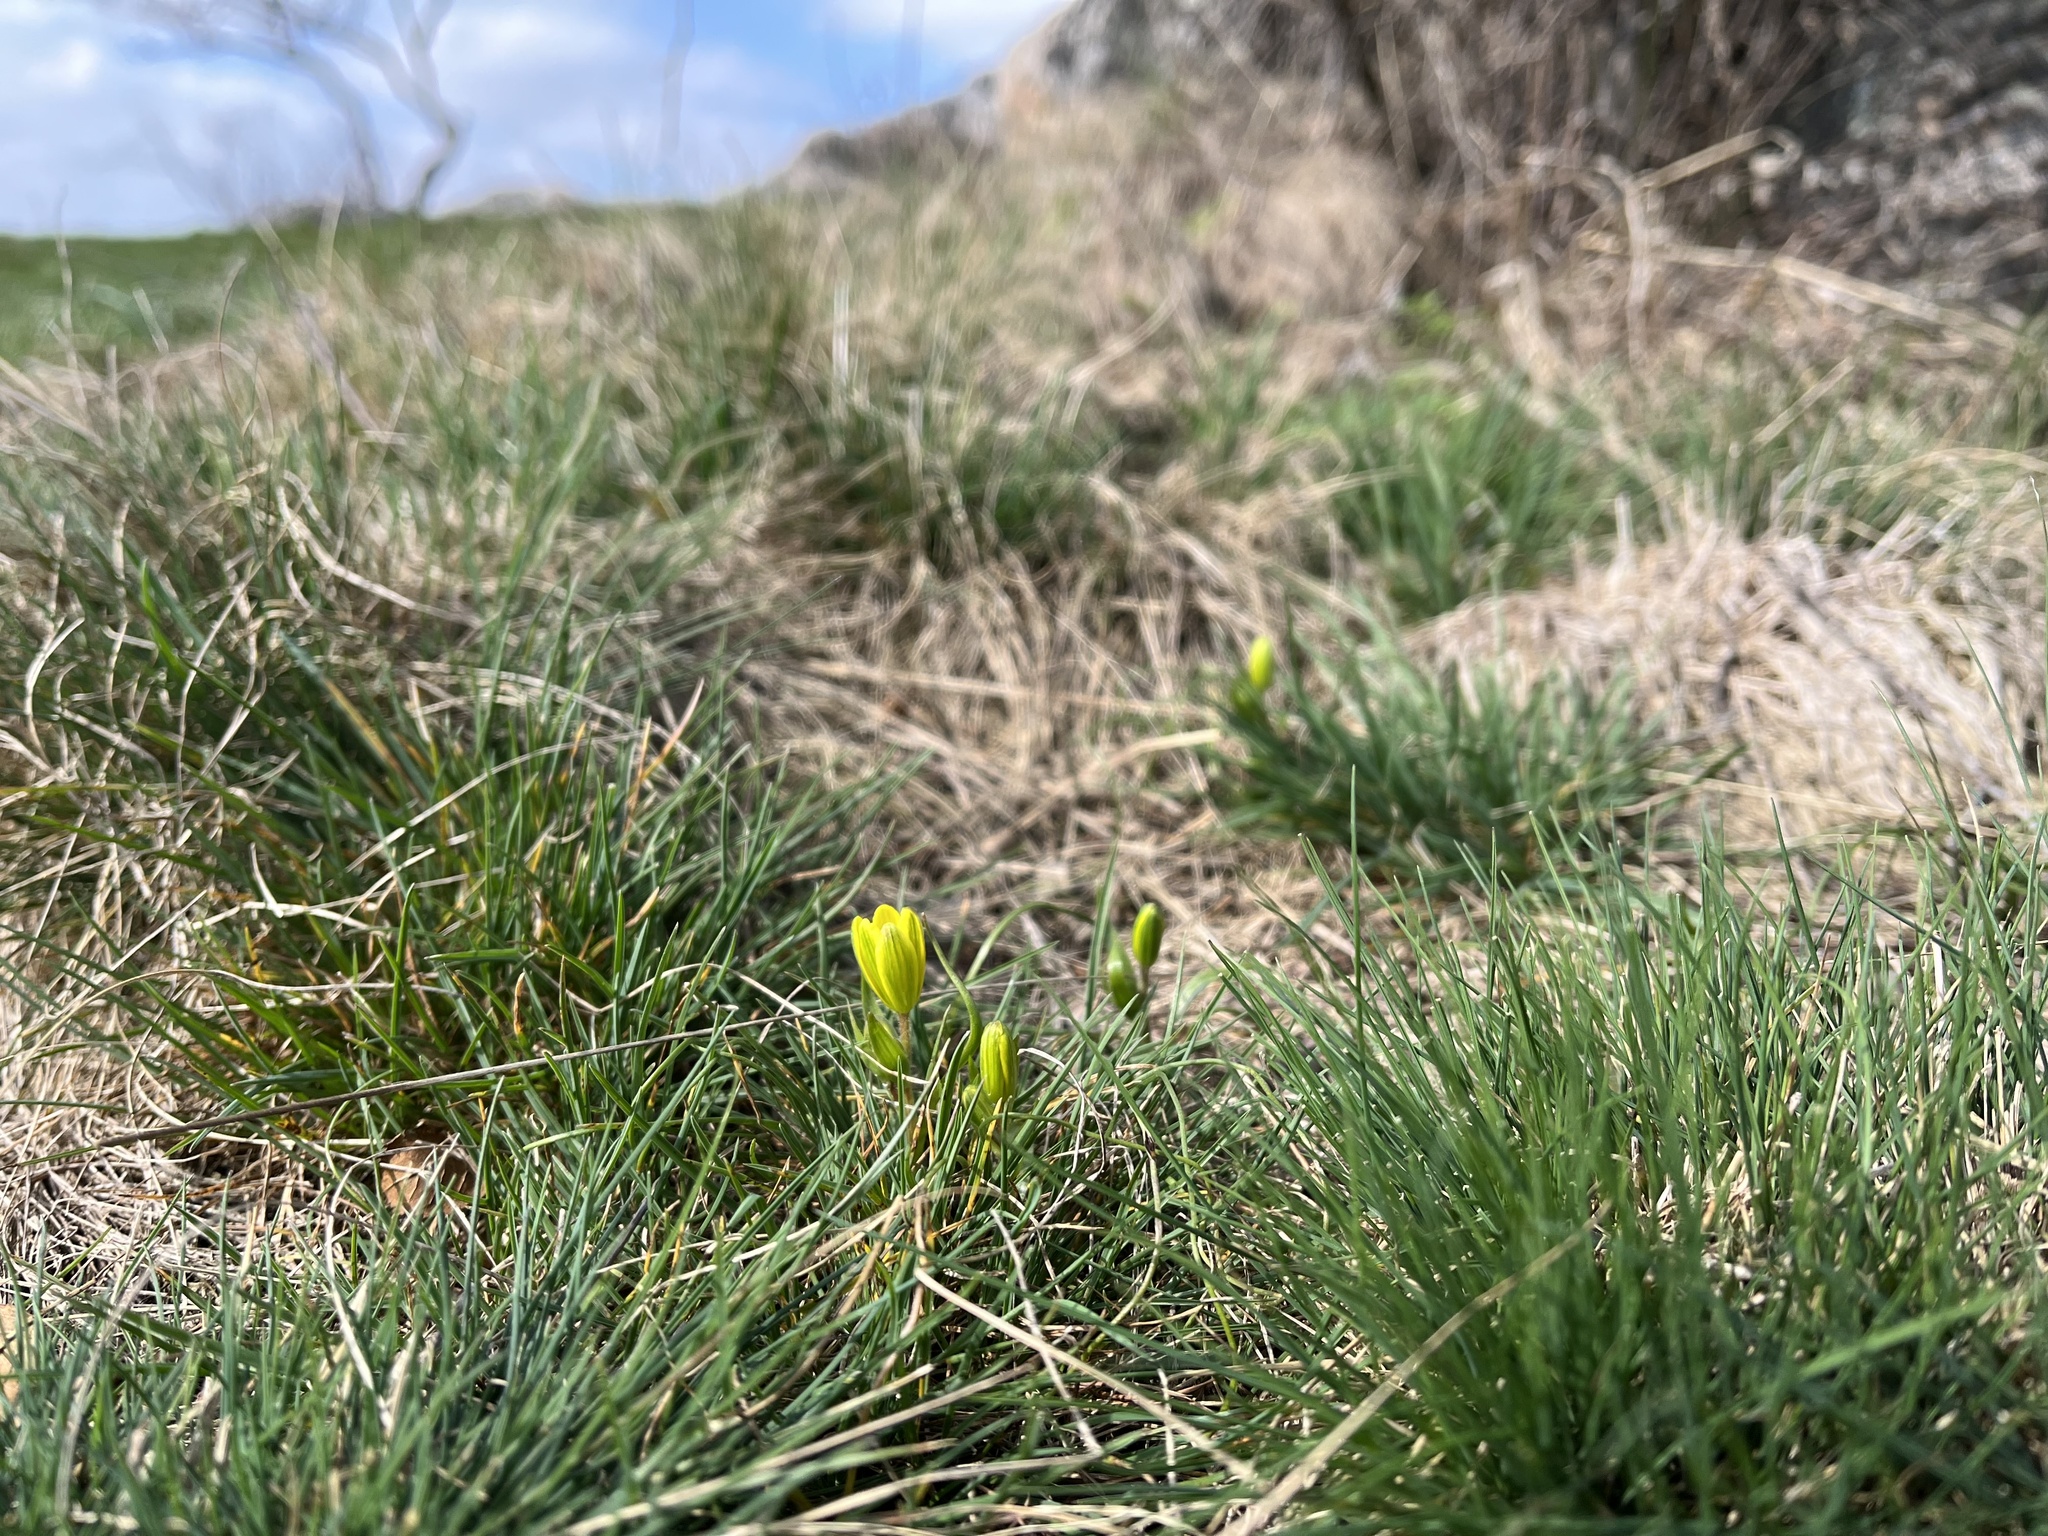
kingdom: Plantae
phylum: Tracheophyta
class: Liliopsida
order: Liliales
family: Liliaceae
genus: Gagea
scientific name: Gagea bohemica
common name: Early star-of-bethlehem
